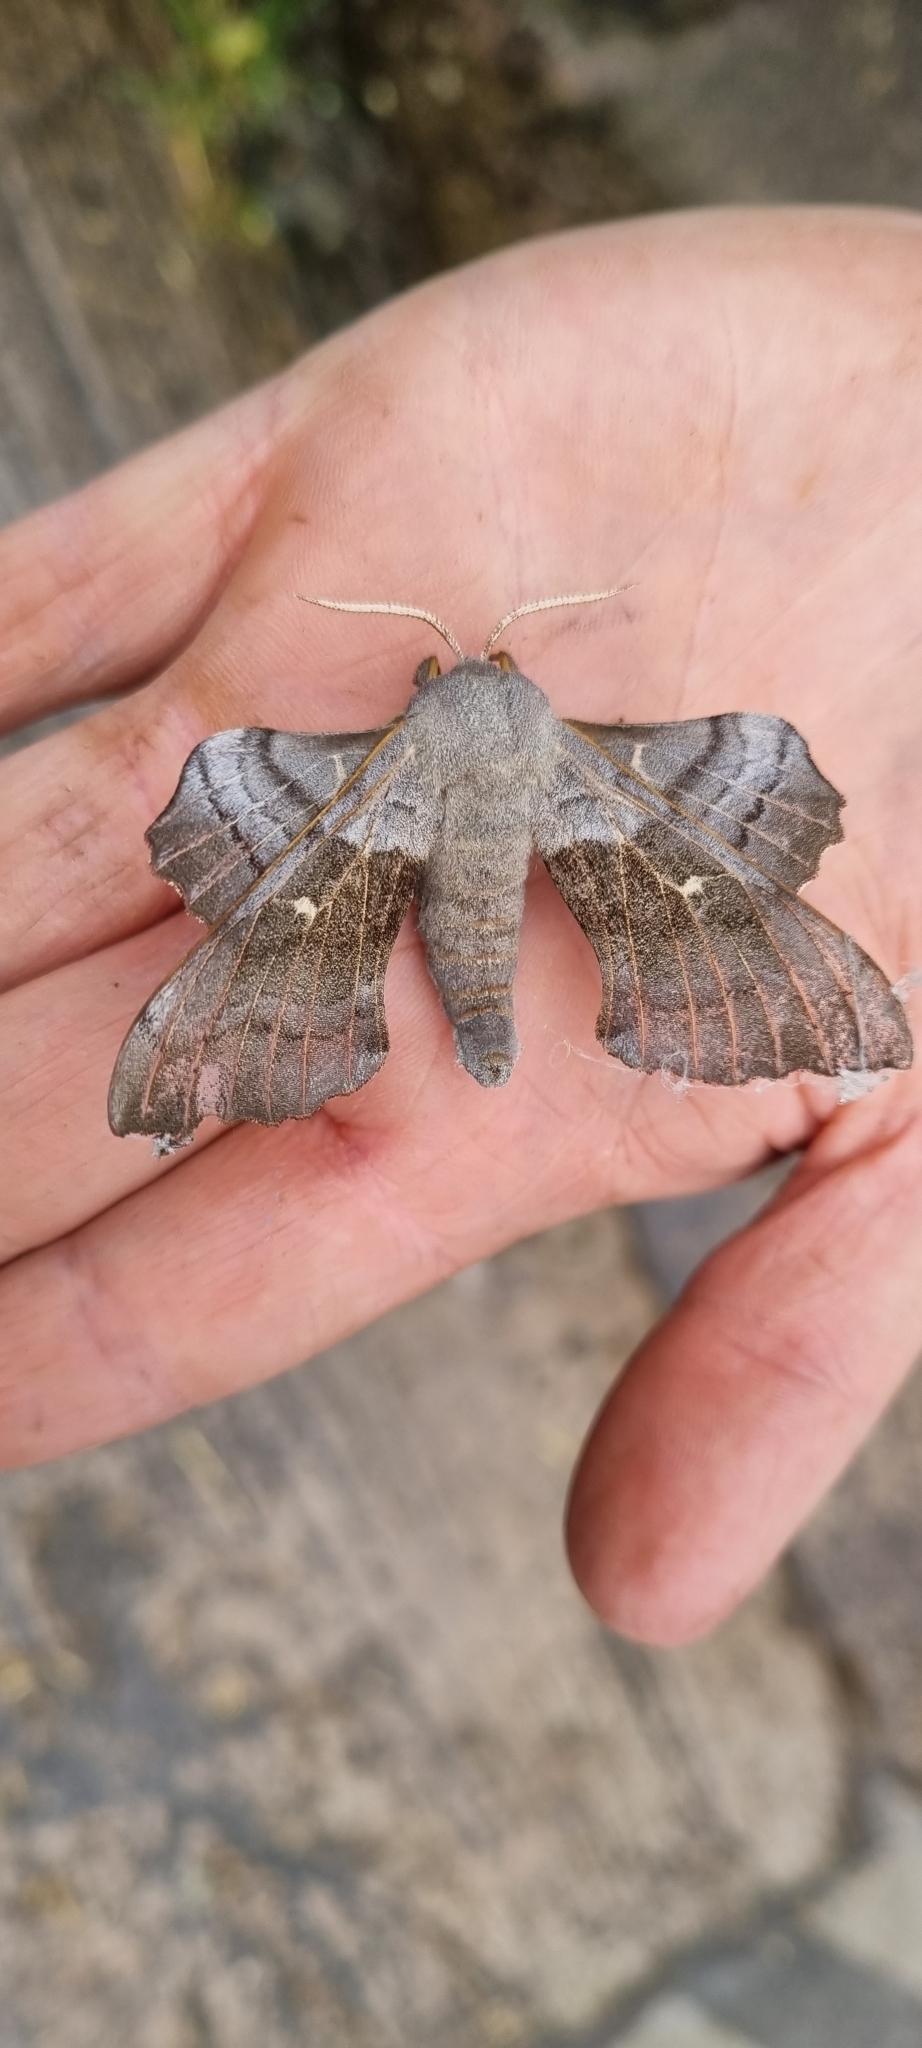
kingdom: Animalia
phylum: Arthropoda
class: Insecta
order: Lepidoptera
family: Sphingidae
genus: Laothoe
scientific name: Laothoe populi
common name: Poplar hawk-moth
